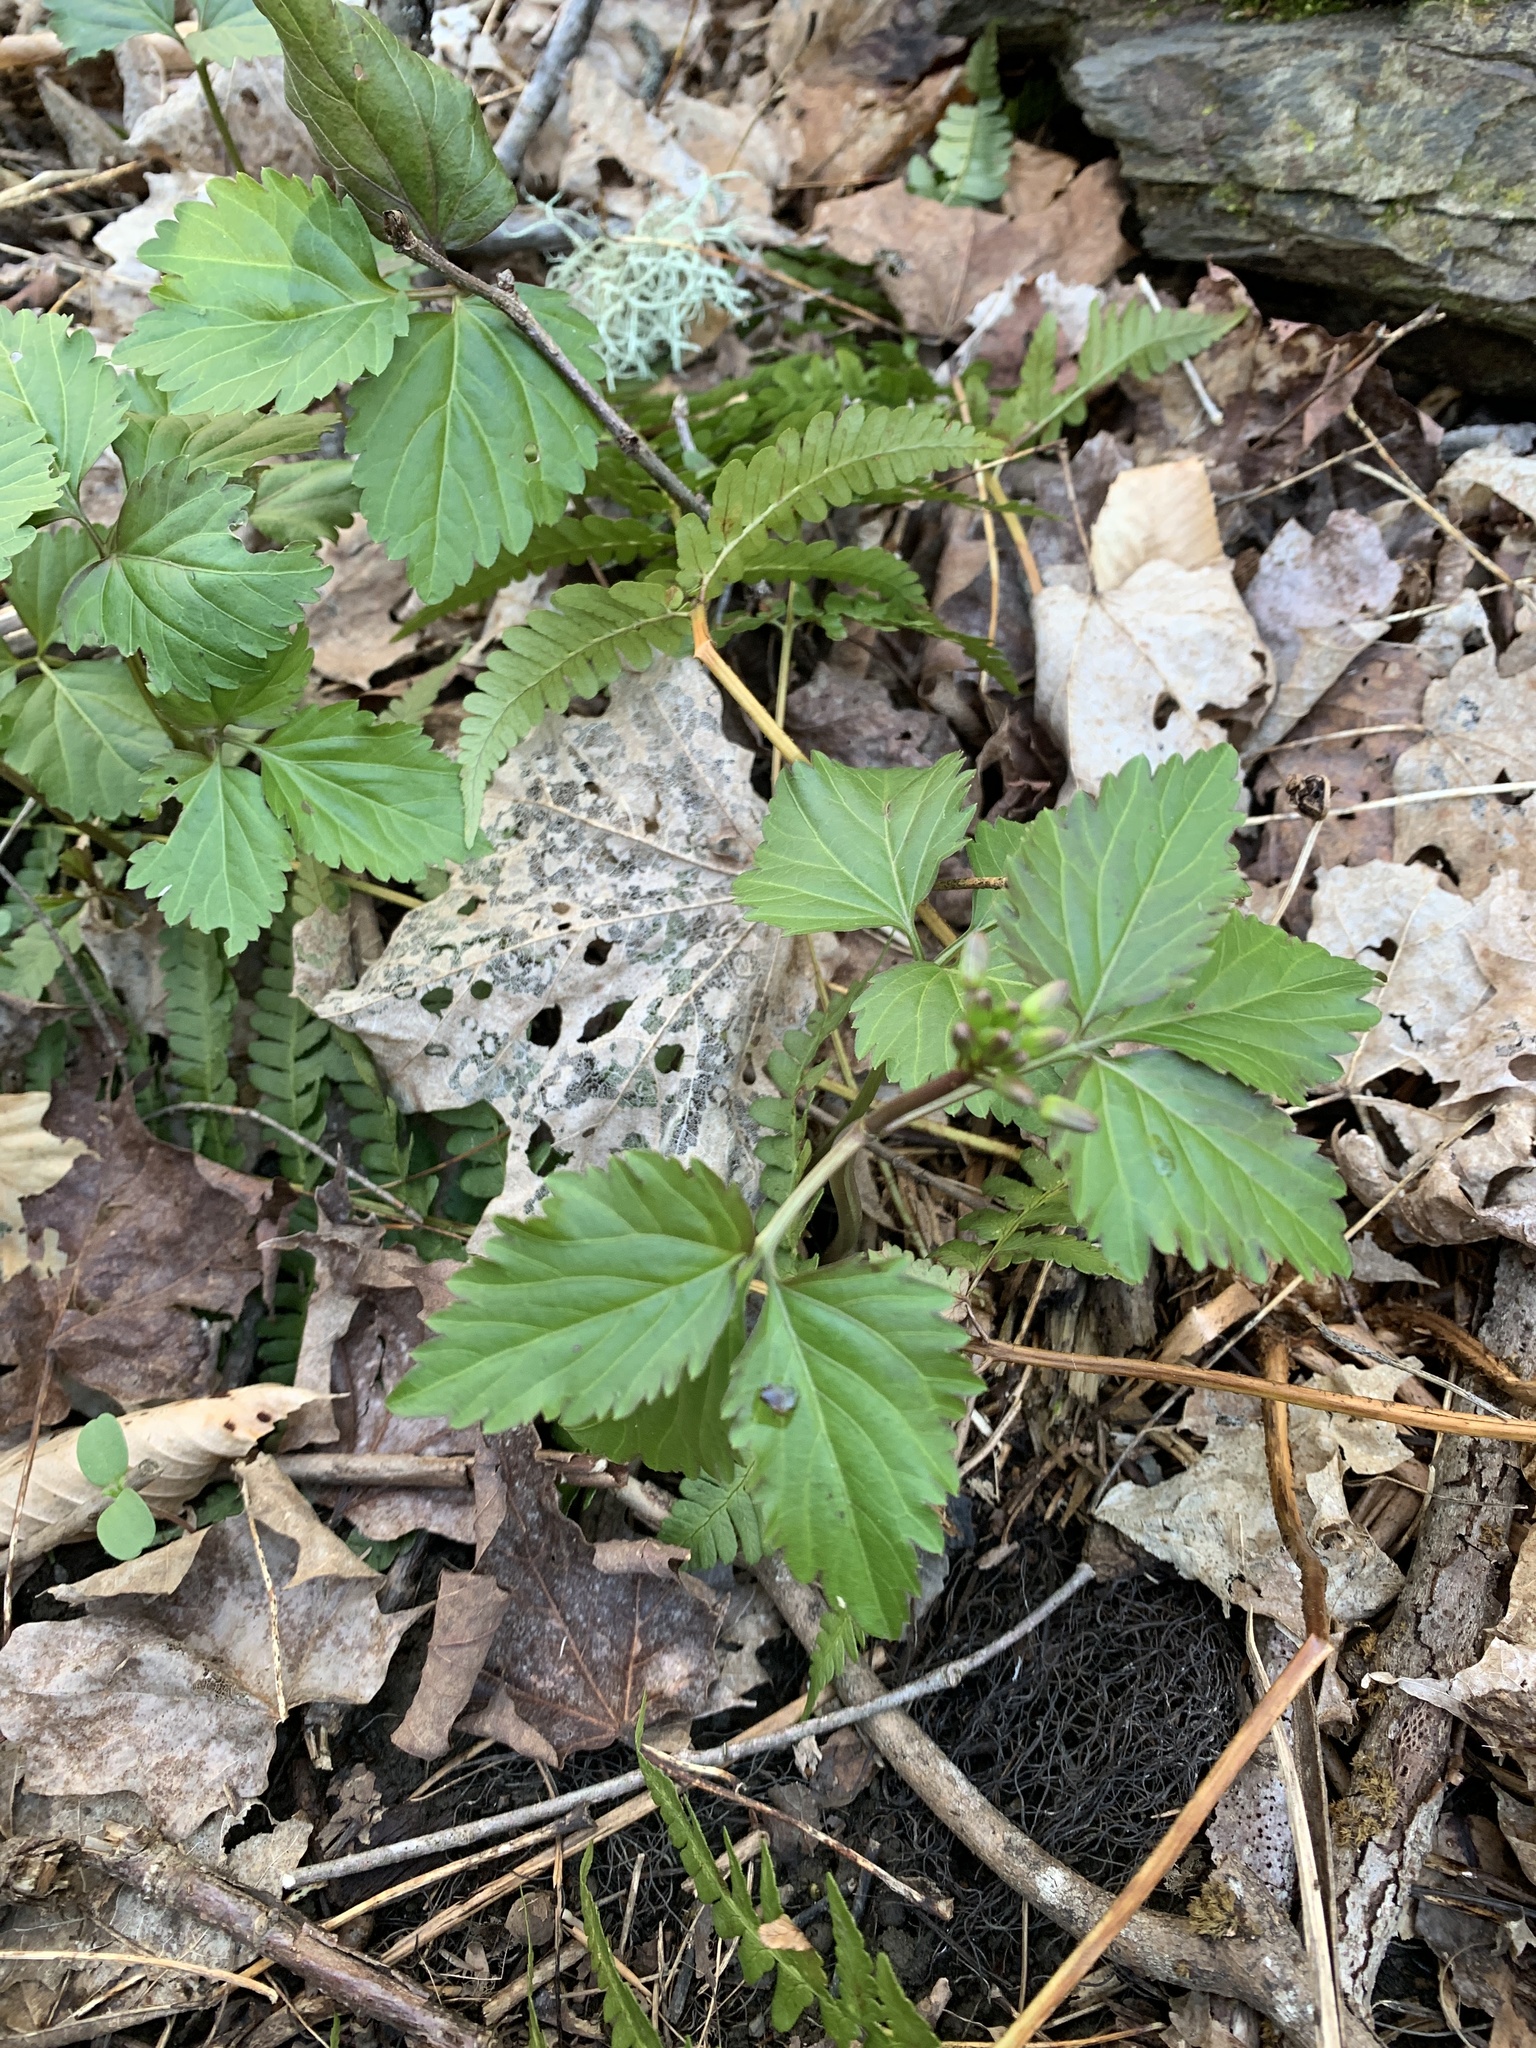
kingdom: Plantae
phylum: Tracheophyta
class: Magnoliopsida
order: Brassicales
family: Brassicaceae
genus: Cardamine
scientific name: Cardamine diphylla
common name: Broad-leaved toothwort
